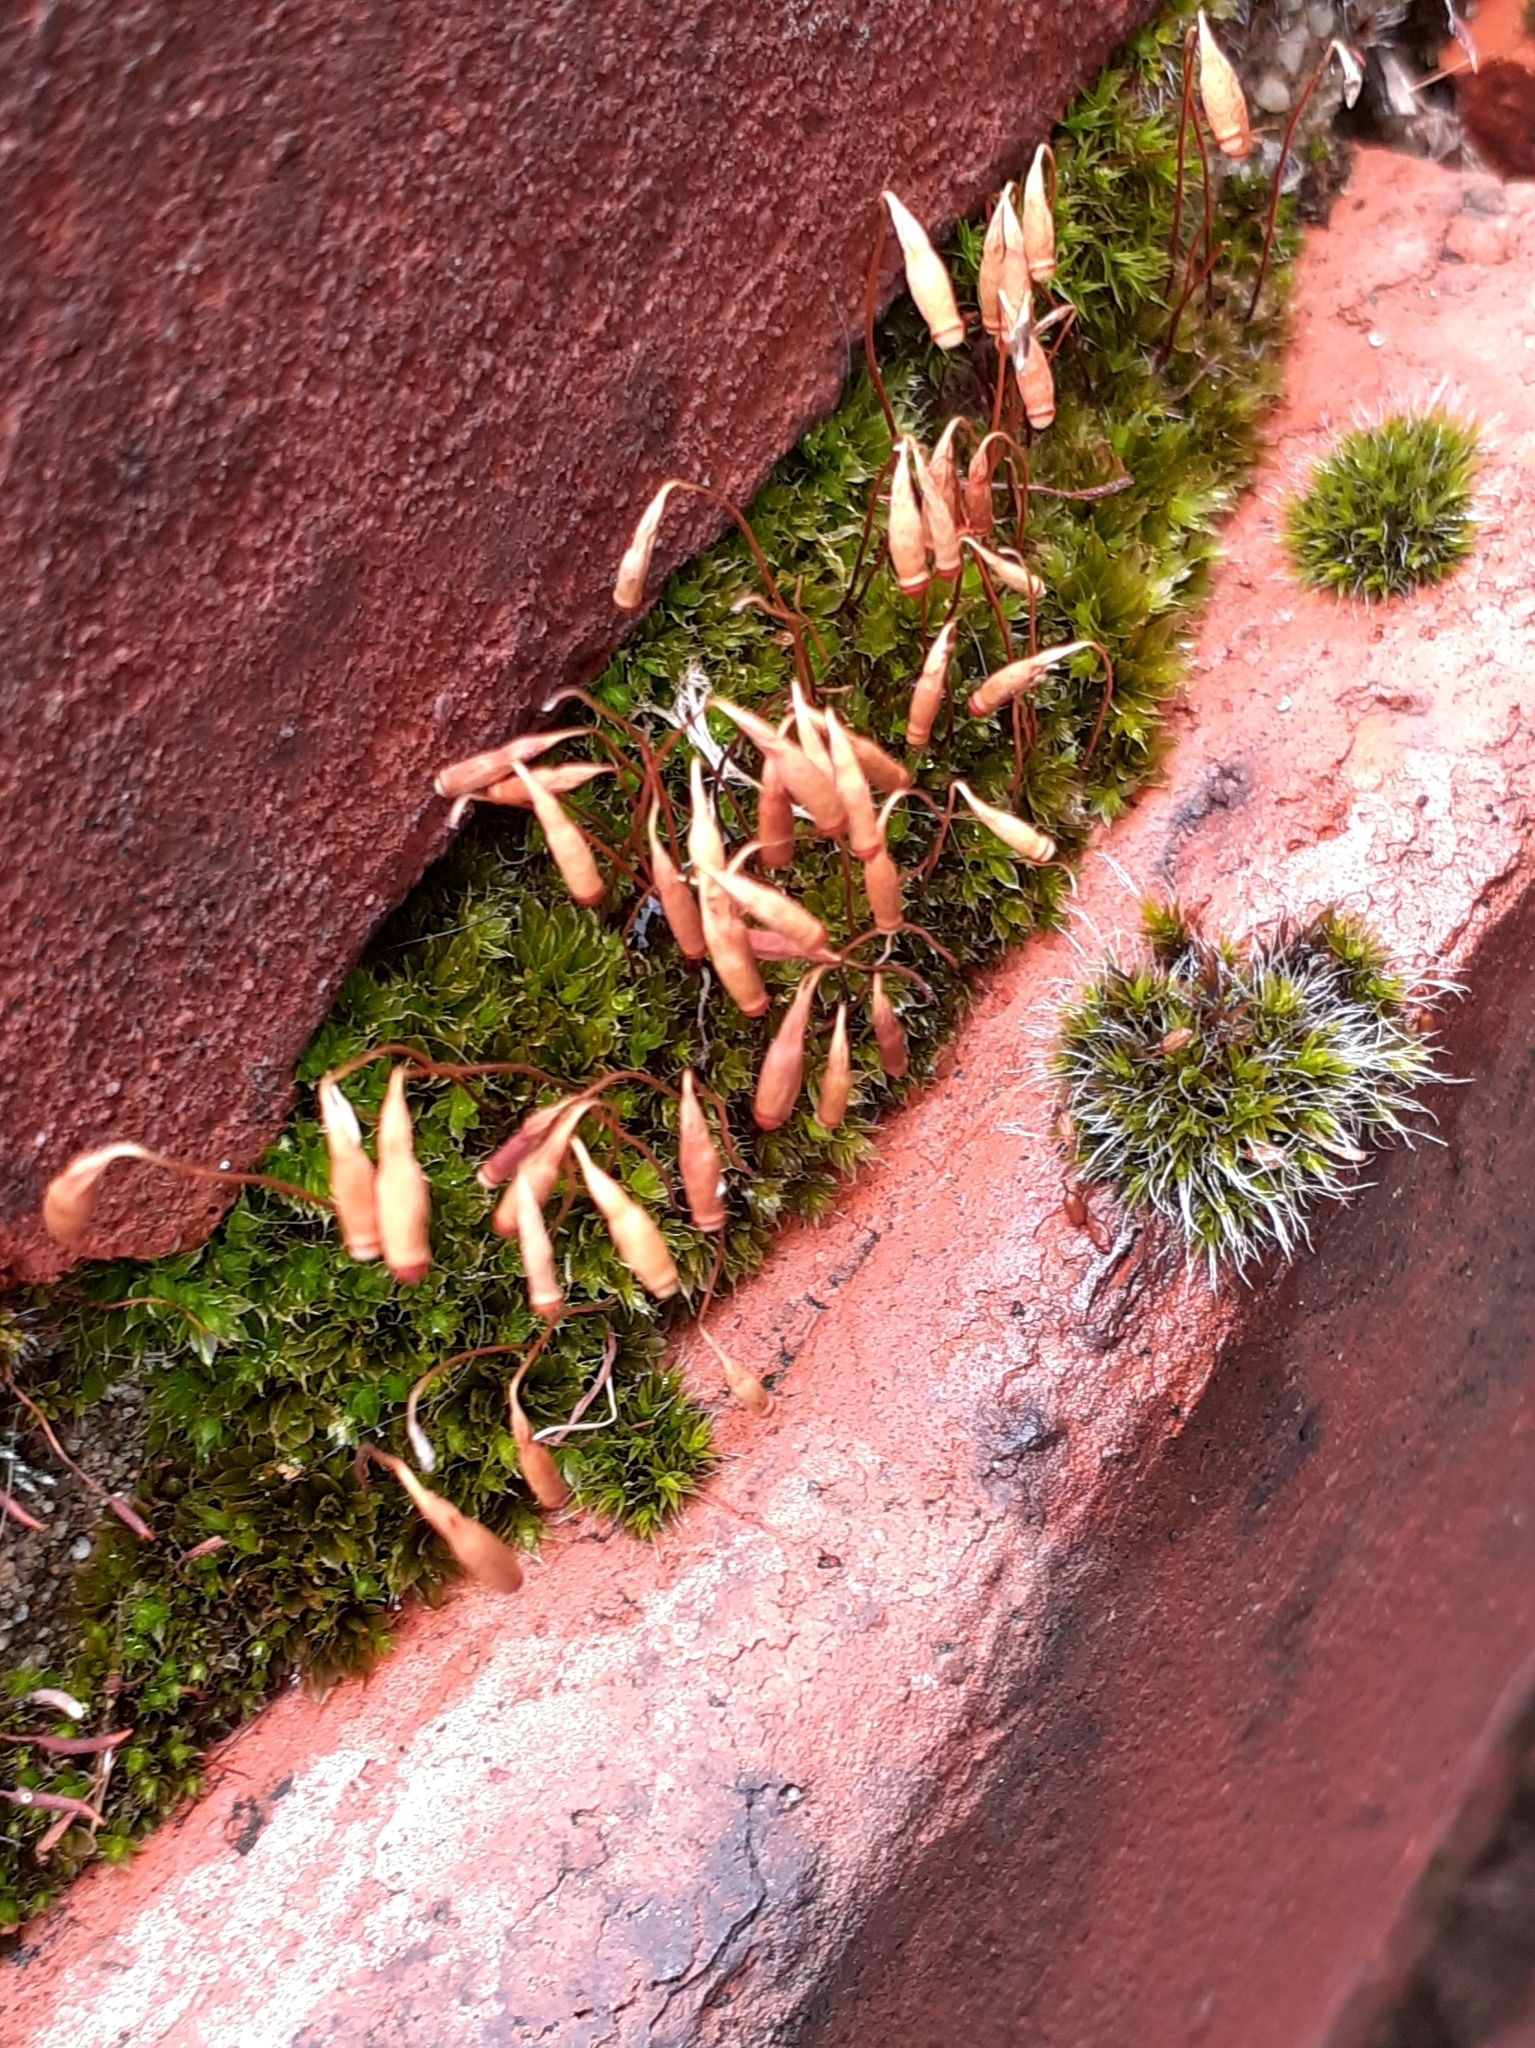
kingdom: Plantae
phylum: Bryophyta
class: Bryopsida
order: Bryales
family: Bryaceae
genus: Rosulabryum
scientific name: Rosulabryum capillare
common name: Capillary thread-moss
